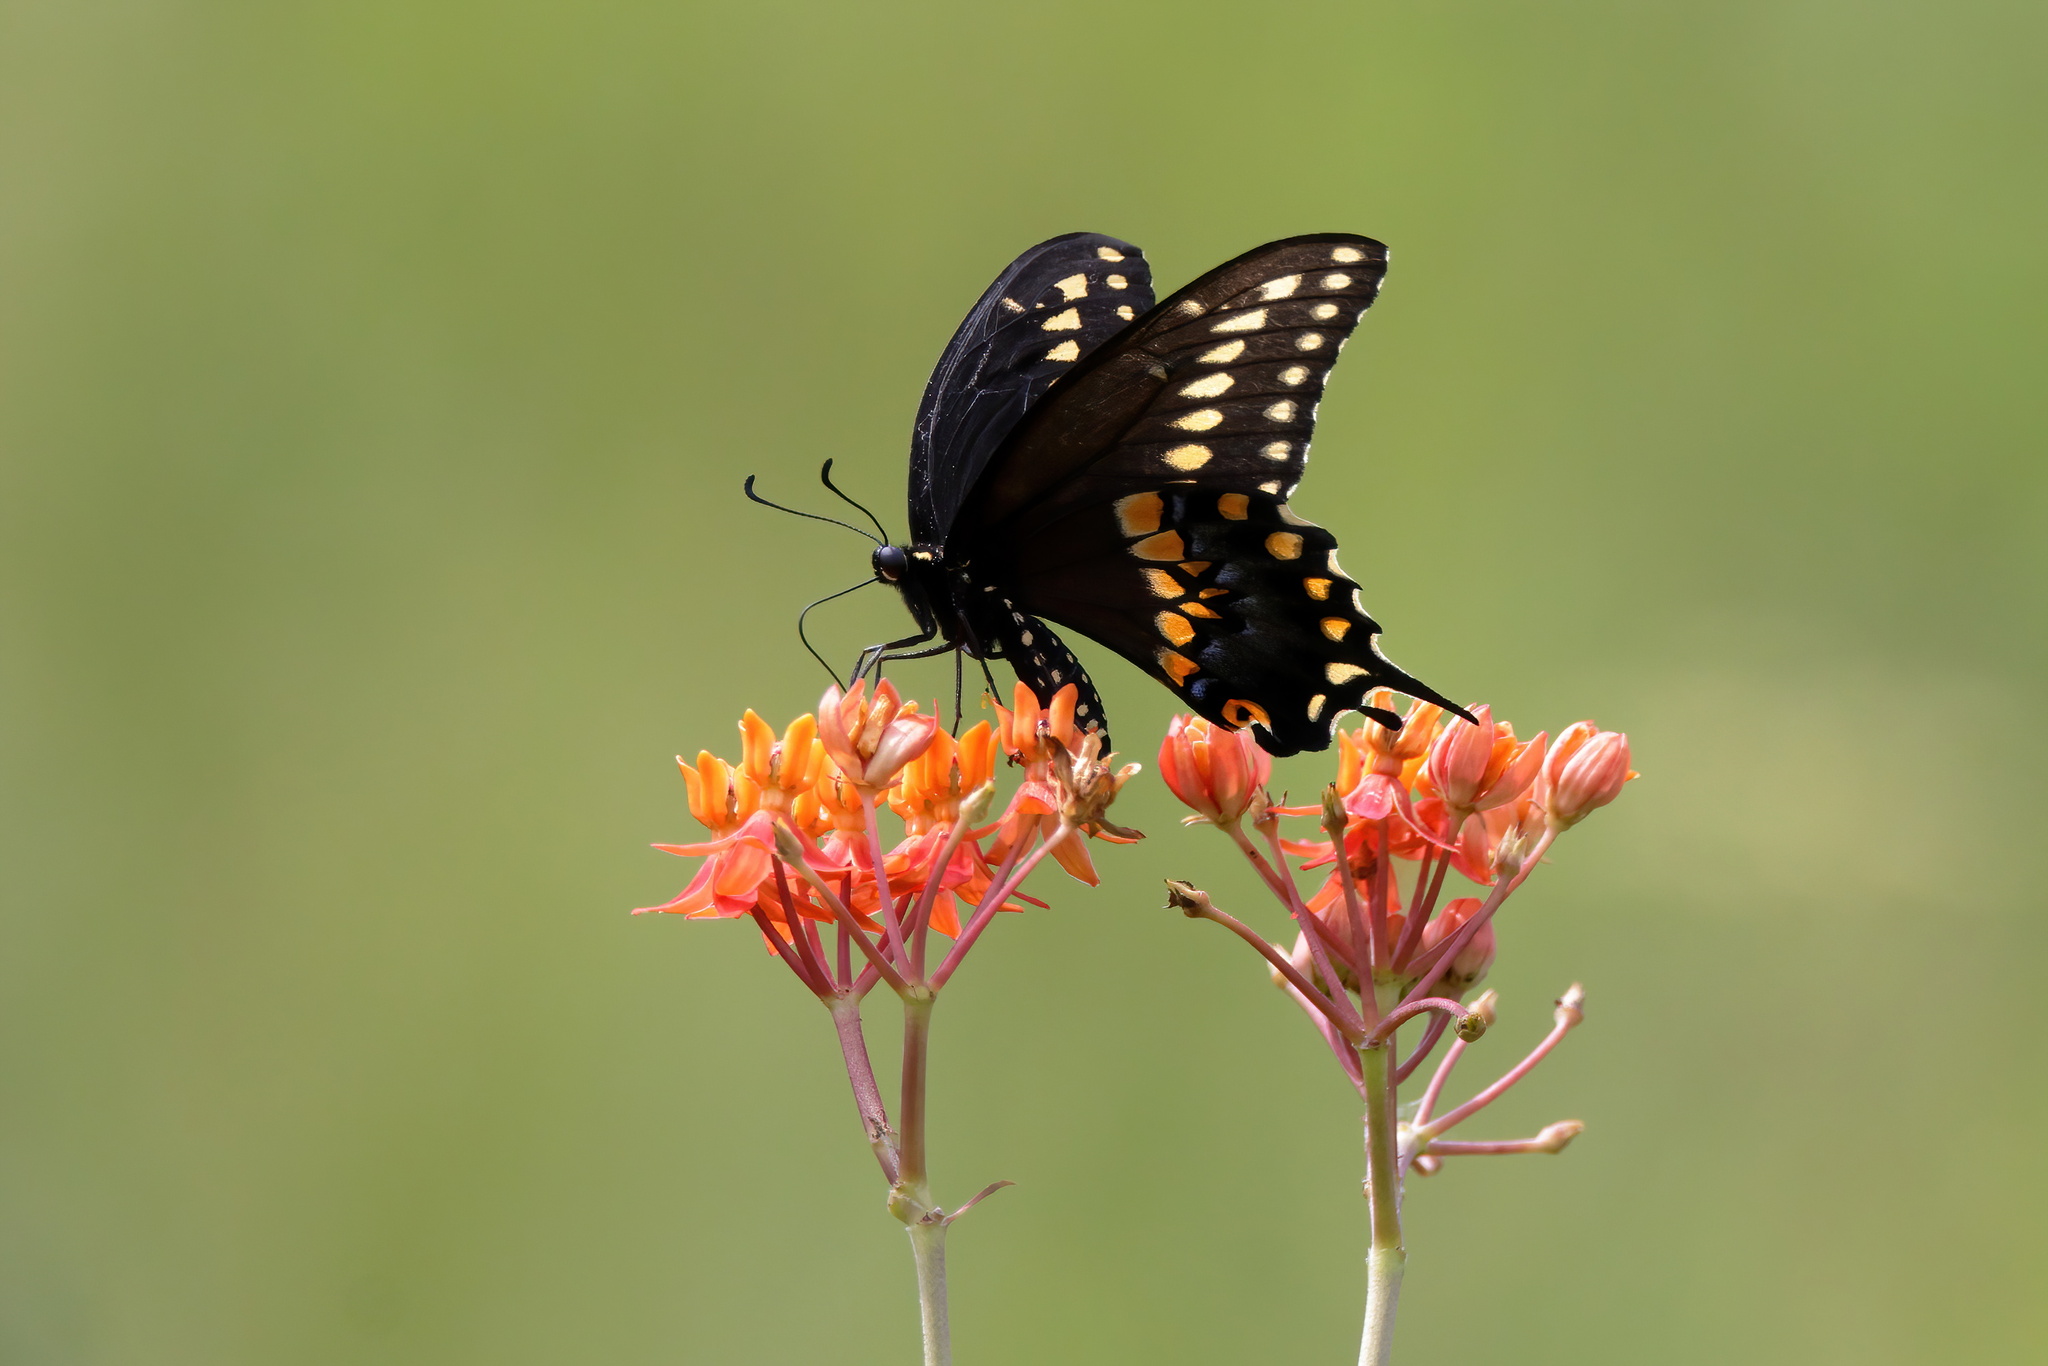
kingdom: Animalia
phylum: Arthropoda
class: Insecta
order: Lepidoptera
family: Papilionidae
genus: Papilio
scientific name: Papilio polyxenes
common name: Black swallowtail
